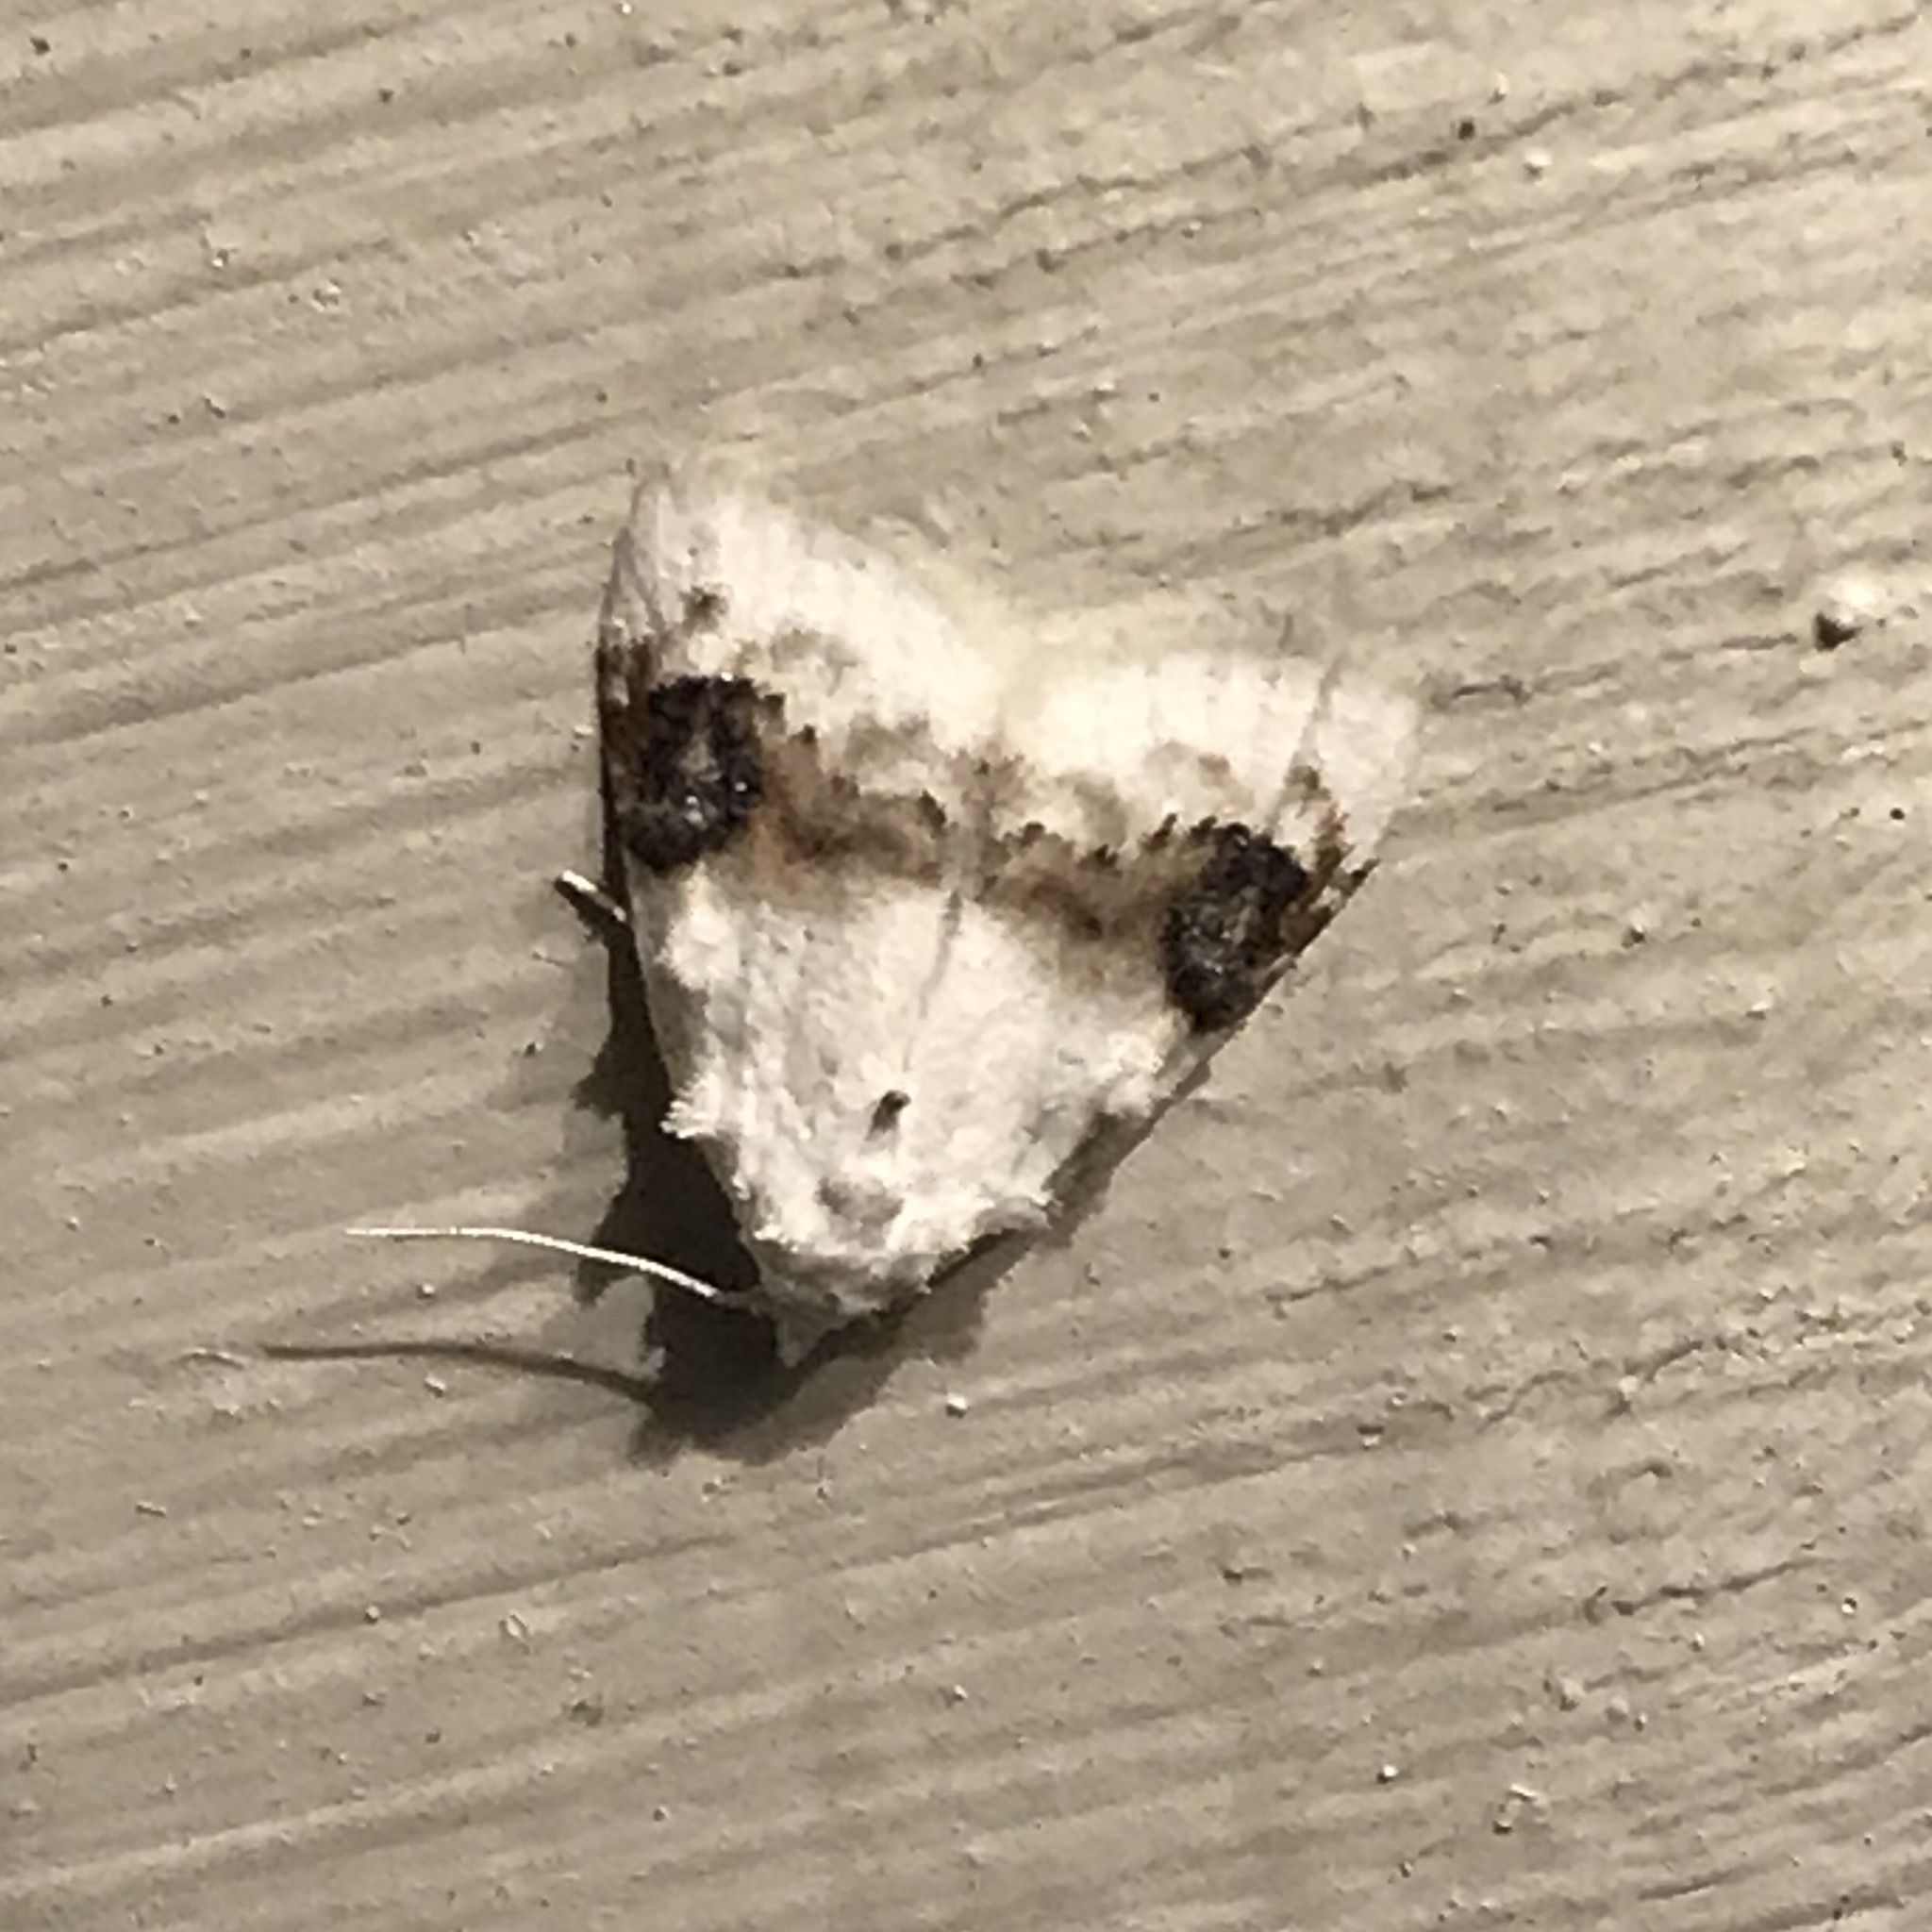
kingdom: Animalia
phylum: Arthropoda
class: Insecta
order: Lepidoptera
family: Nolidae
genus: Nola
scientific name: Nola cilicoides
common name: Blurry-patched nola moth
